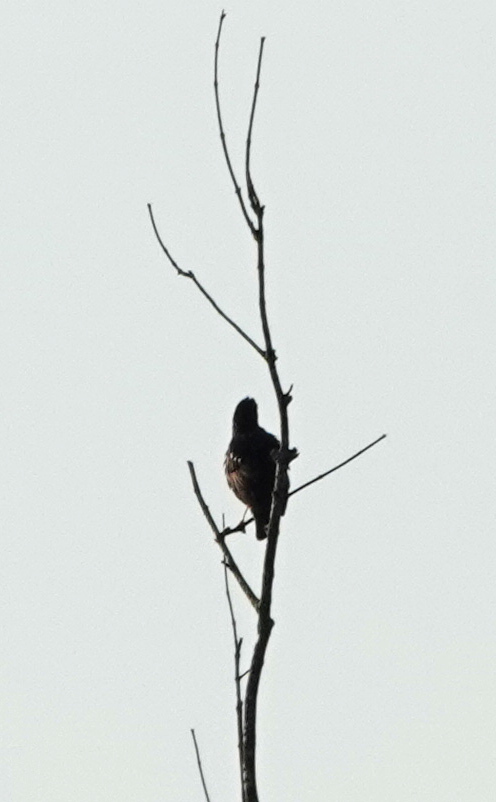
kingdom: Animalia
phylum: Chordata
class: Aves
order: Passeriformes
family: Sturnidae
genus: Sturnus
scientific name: Sturnus vulgaris
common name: Common starling
